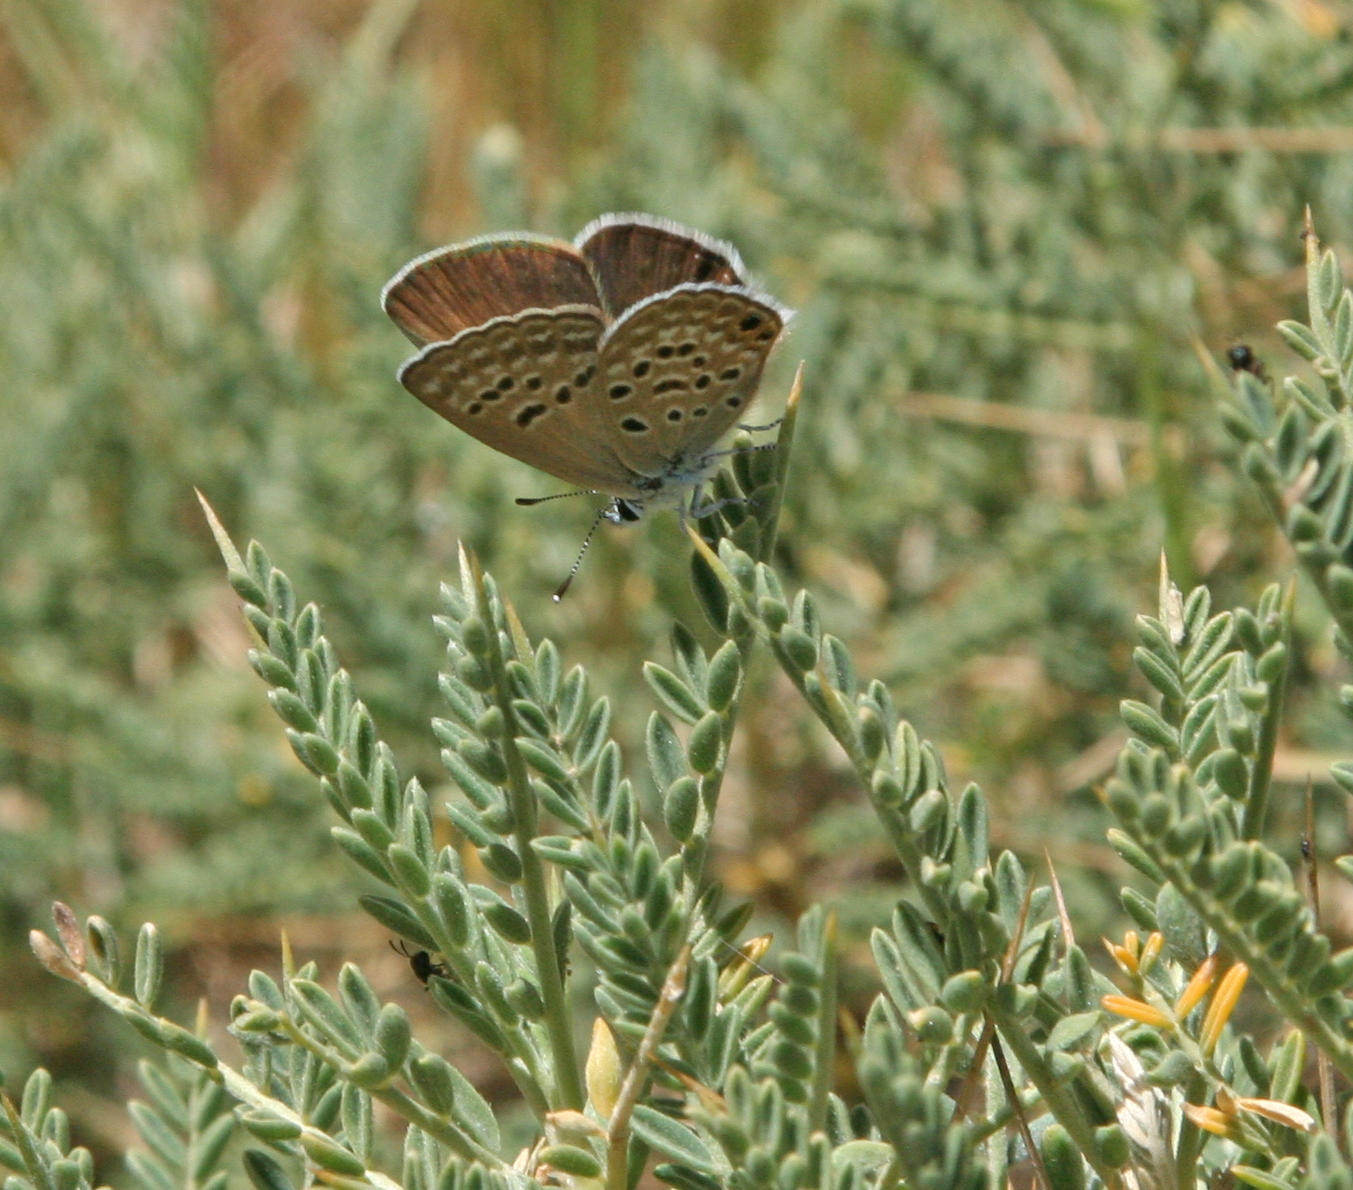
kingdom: Animalia
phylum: Arthropoda
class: Insecta
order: Lepidoptera
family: Lycaenidae
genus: Afarsia
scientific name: Afarsia morgiana
